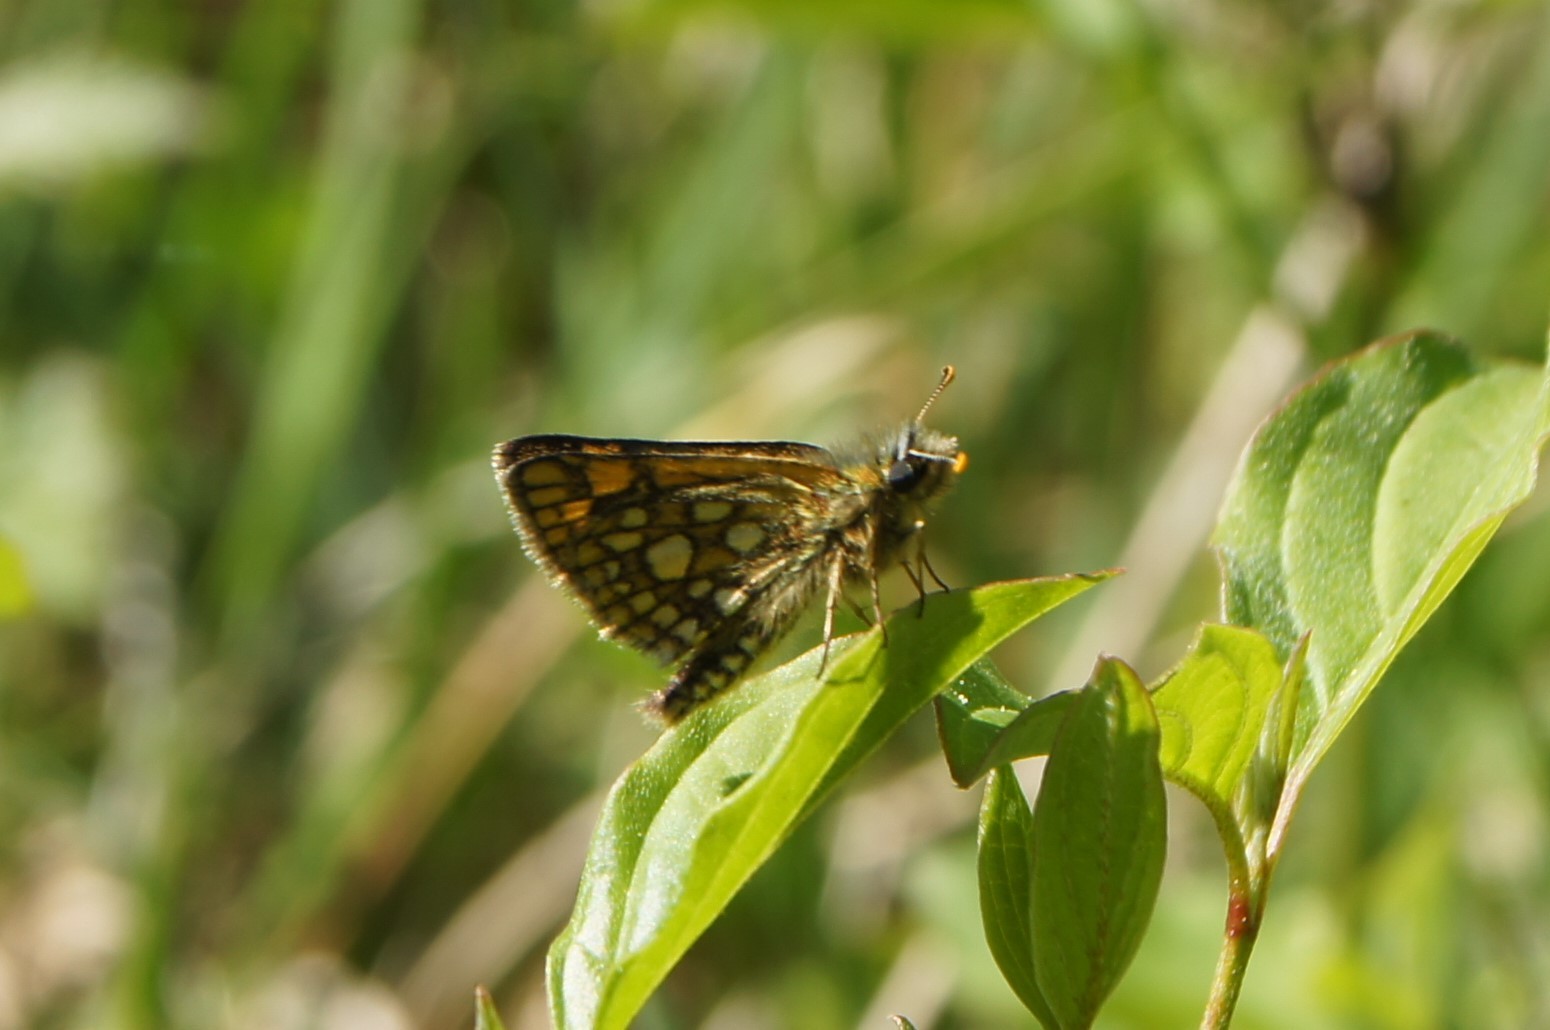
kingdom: Animalia
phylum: Arthropoda
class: Insecta
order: Lepidoptera
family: Hesperiidae
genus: Carterocephalus
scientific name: Carterocephalus palaemon
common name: Chequered skipper
